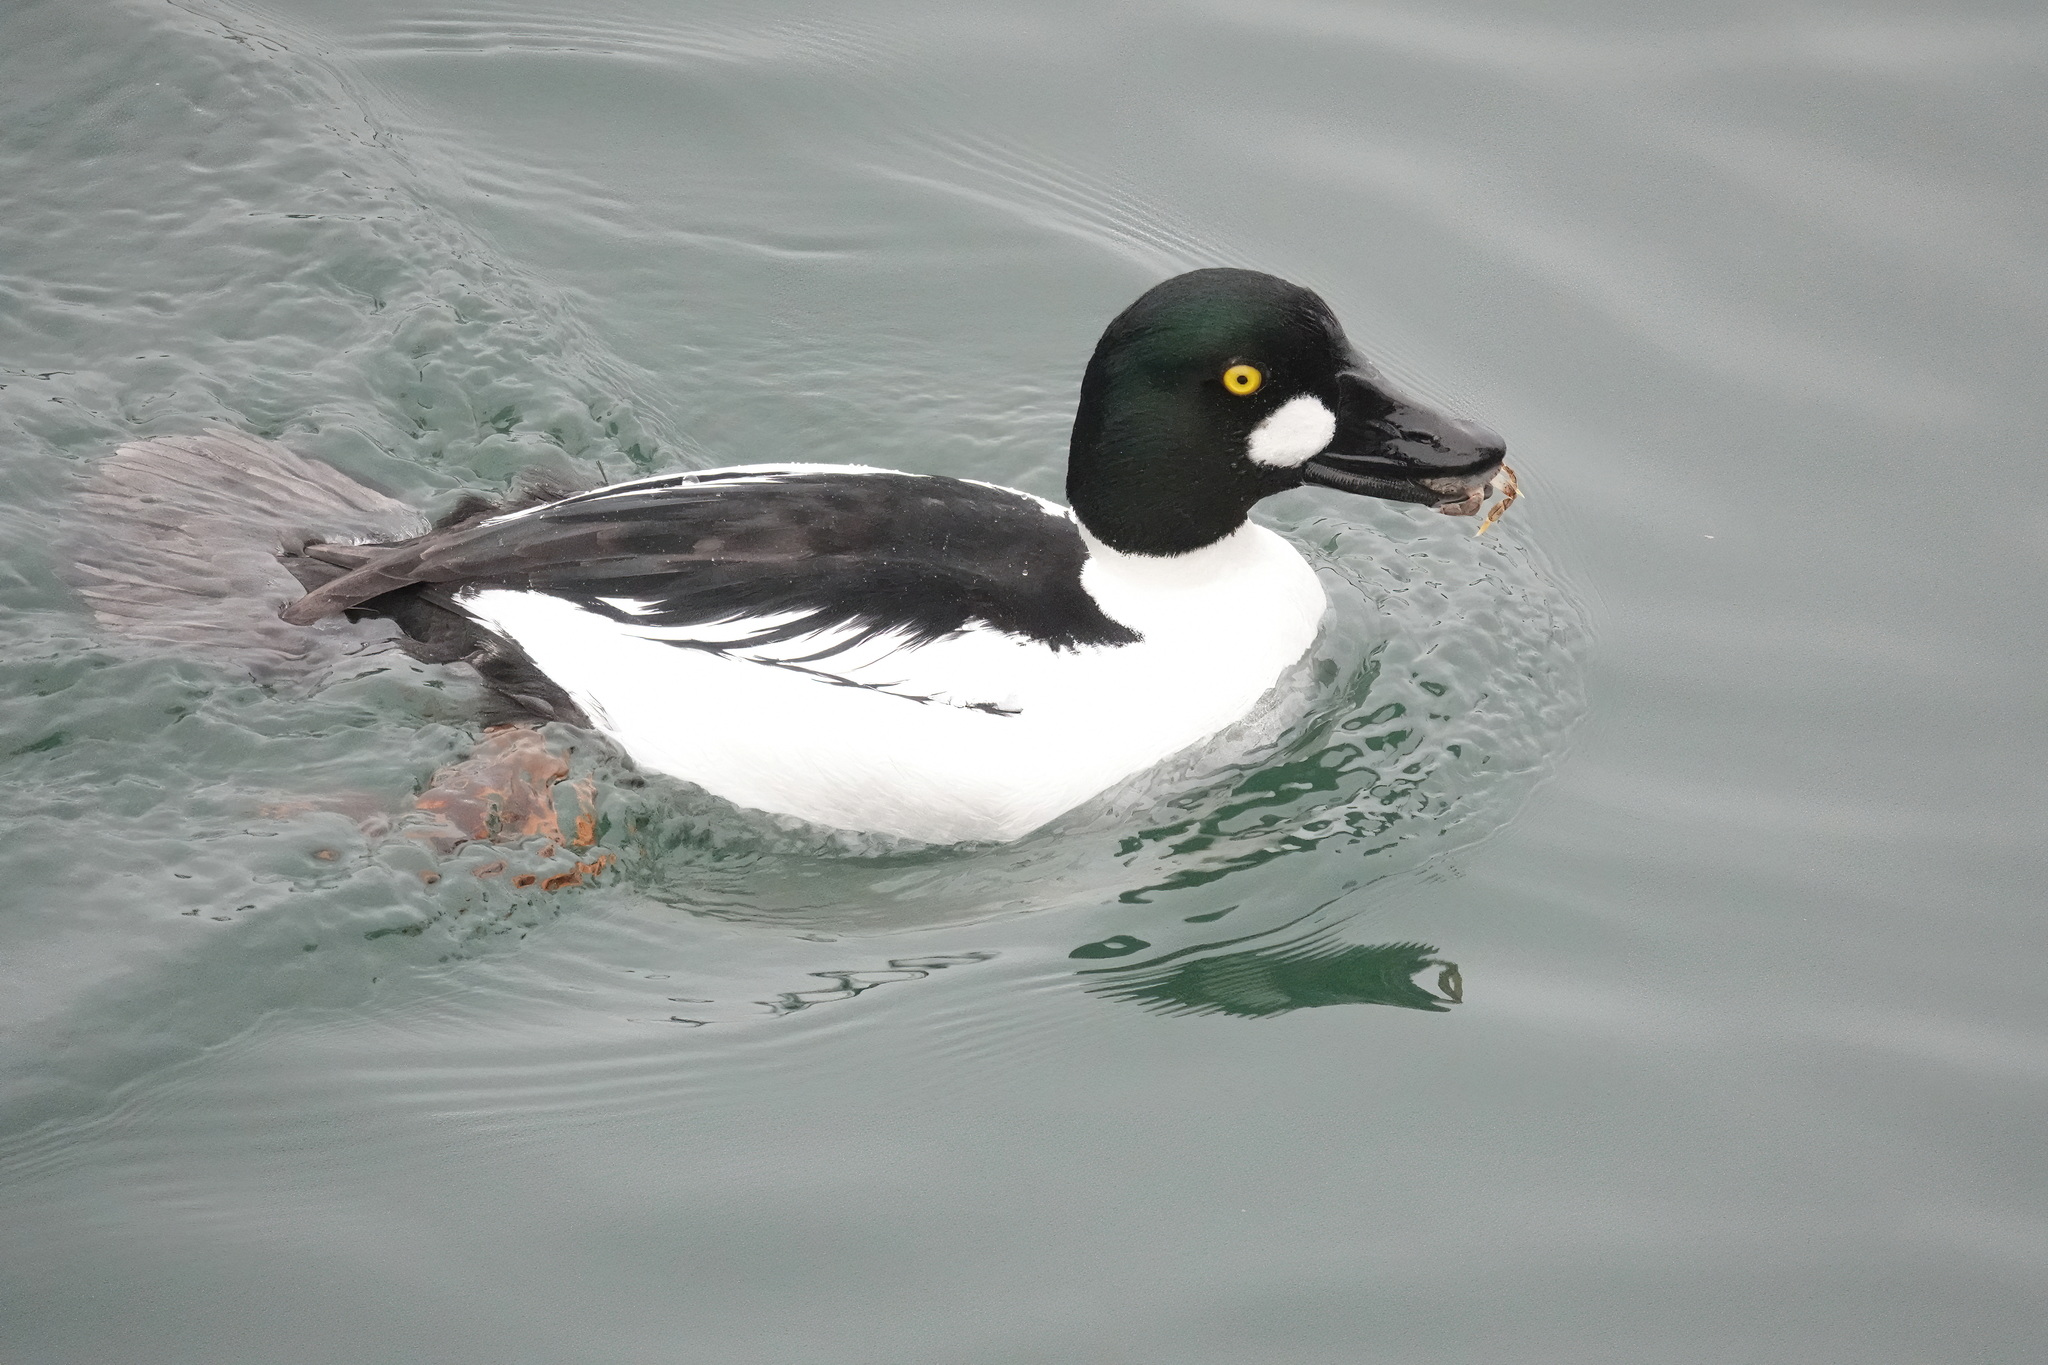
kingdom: Animalia
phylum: Chordata
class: Aves
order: Anseriformes
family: Anatidae
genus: Bucephala
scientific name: Bucephala clangula
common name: Common goldeneye
